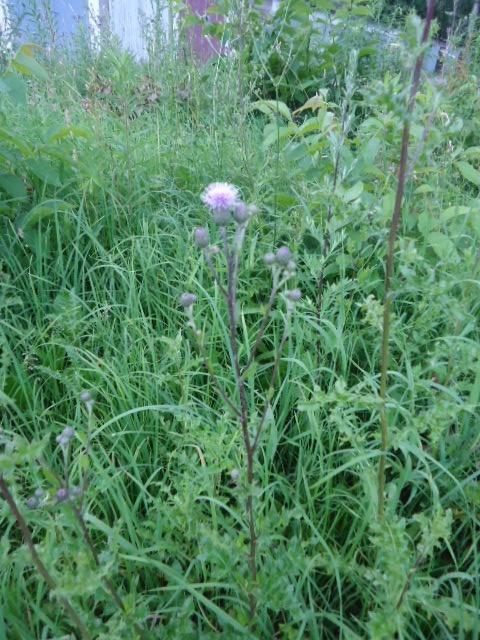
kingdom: Plantae
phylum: Tracheophyta
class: Magnoliopsida
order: Asterales
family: Asteraceae
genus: Cirsium
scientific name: Cirsium arvense
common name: Creeping thistle
